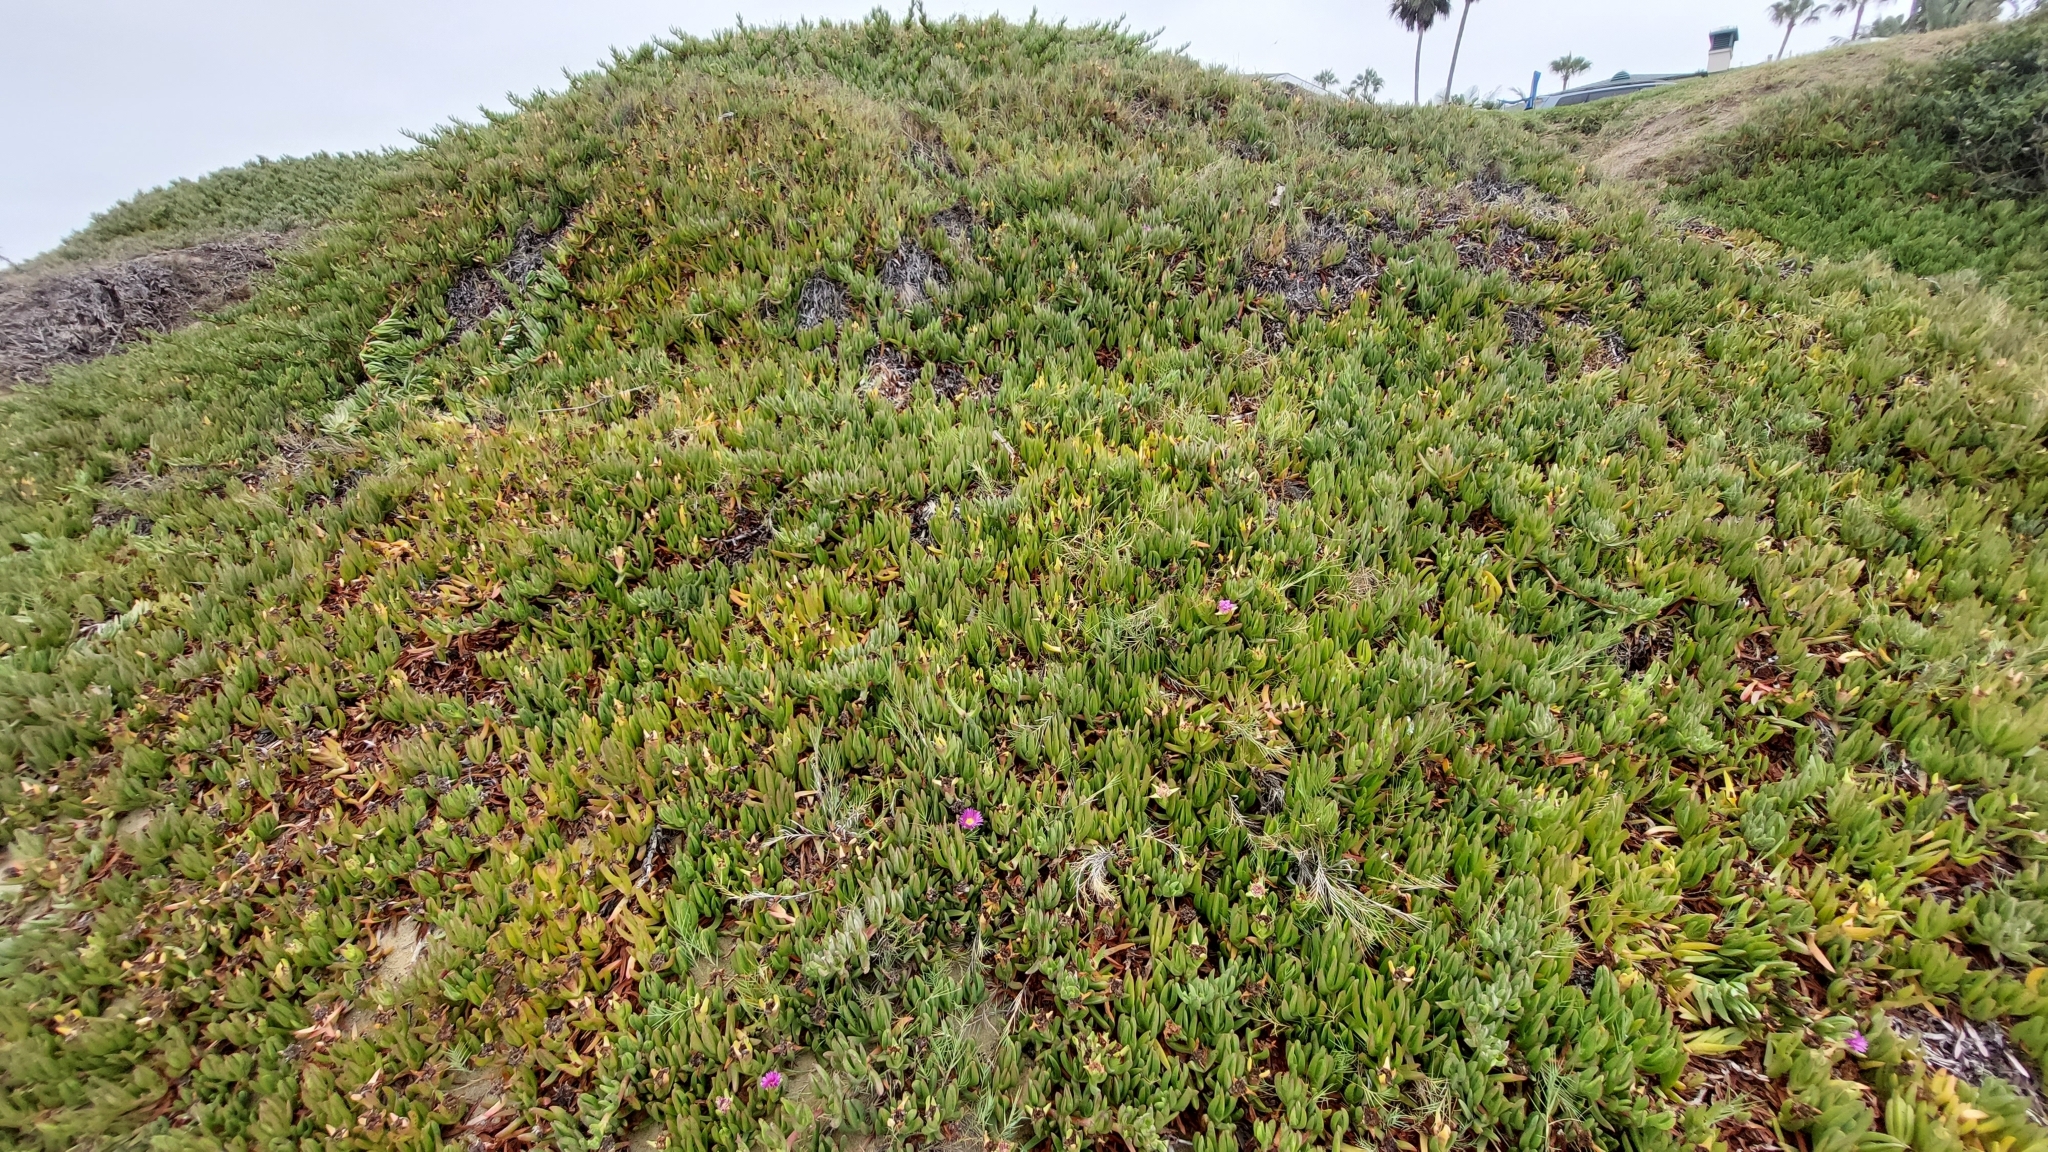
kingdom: Plantae
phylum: Tracheophyta
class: Magnoliopsida
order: Caryophyllales
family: Aizoaceae
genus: Carpobrotus
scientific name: Carpobrotus chilensis
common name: Sea fig
